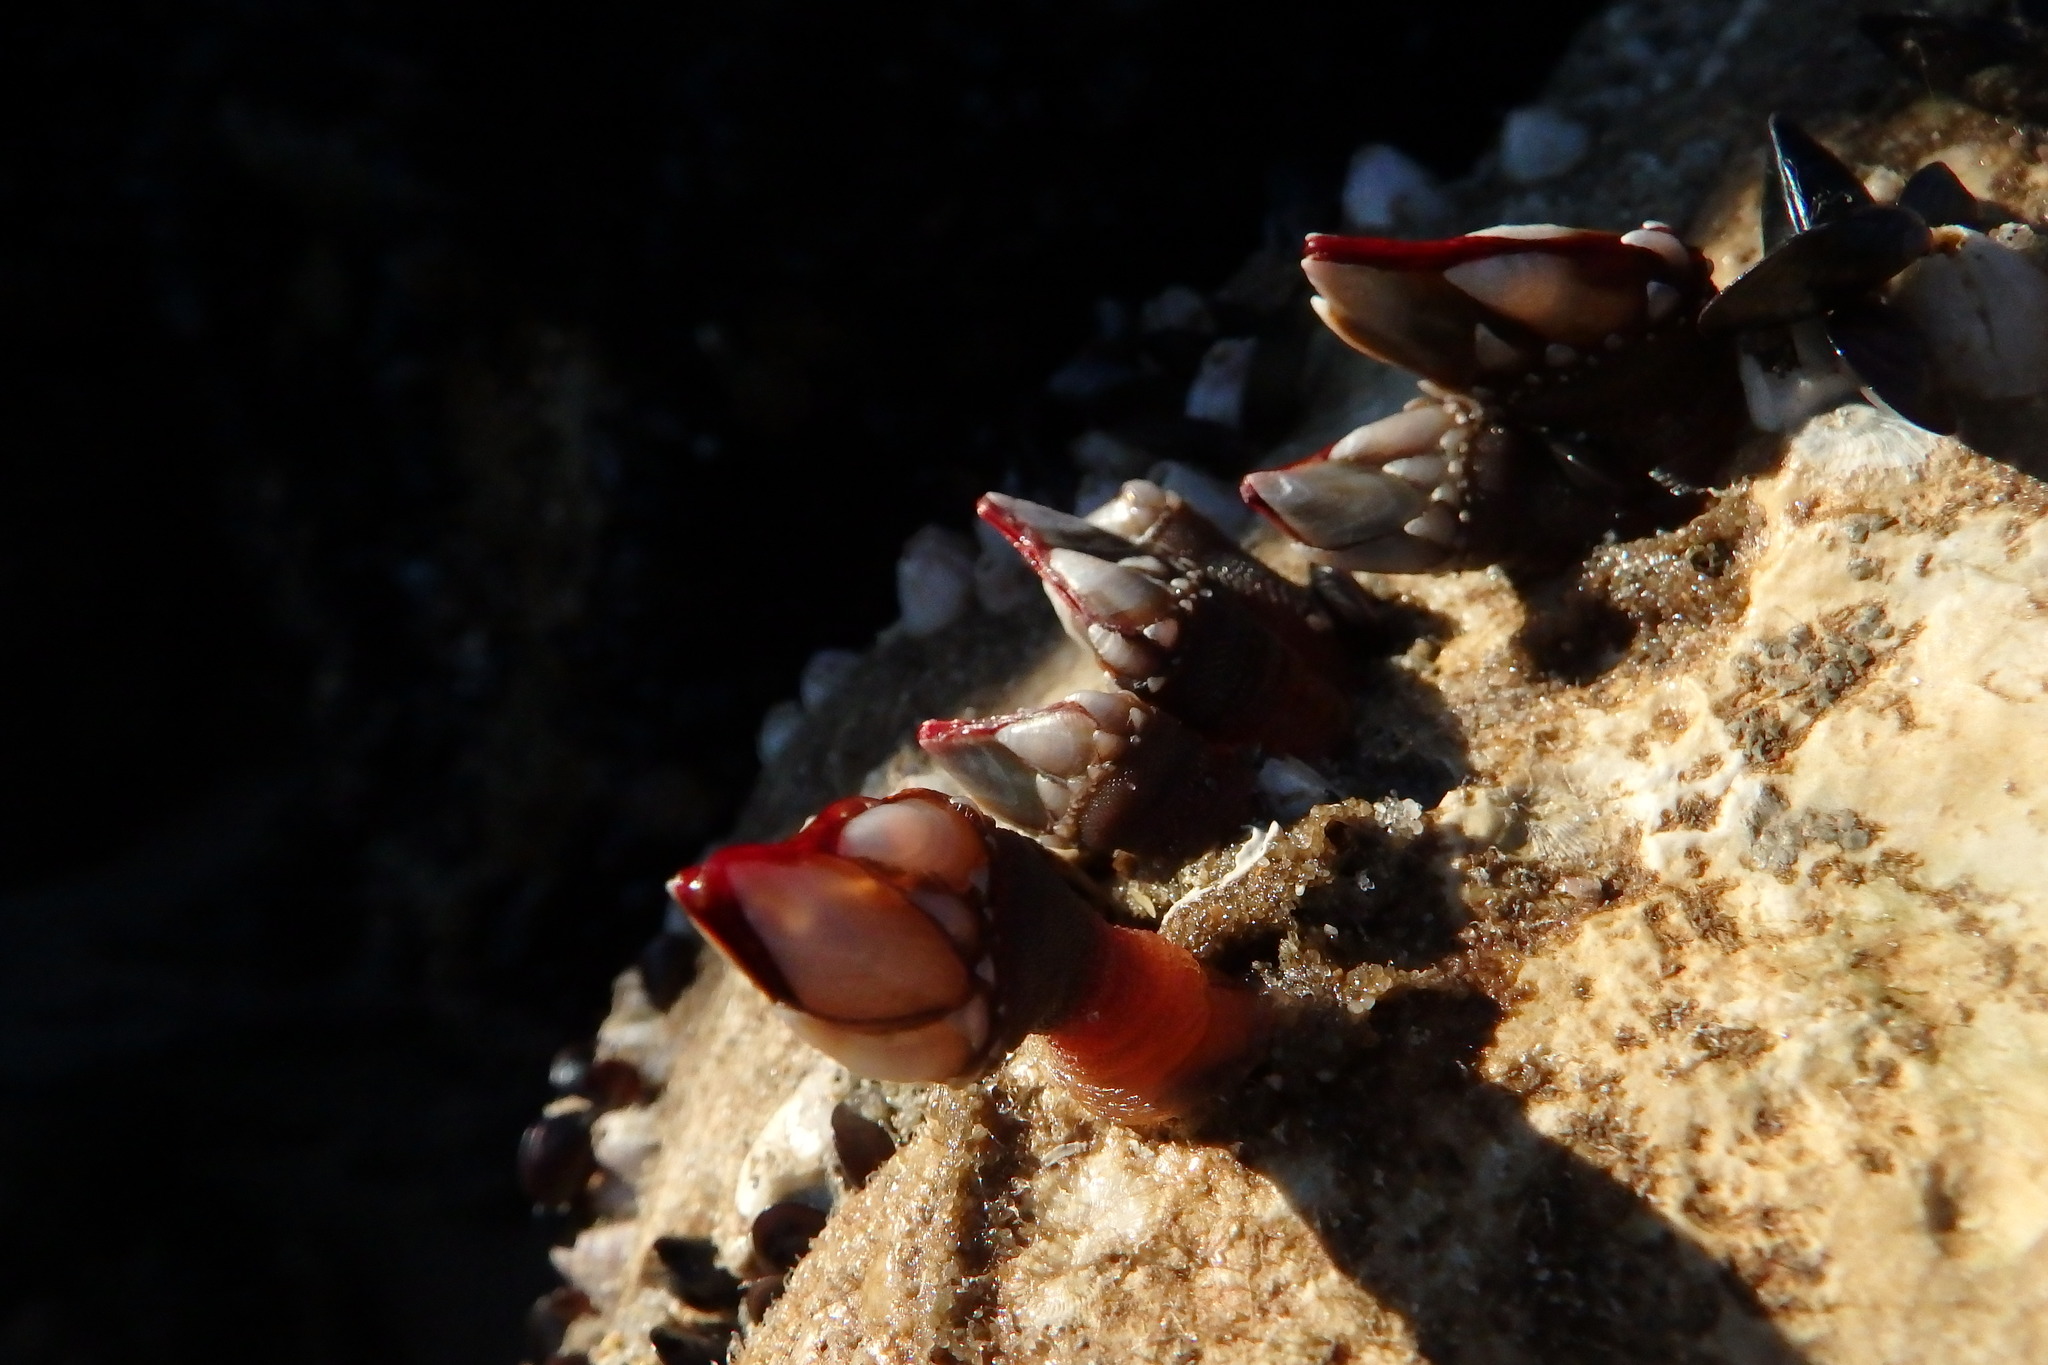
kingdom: Animalia
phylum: Arthropoda
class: Maxillopoda
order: Pedunculata
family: Pollicipedidae
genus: Pollicipes
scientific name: Pollicipes pollicipes
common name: Gooseneck barnacle
